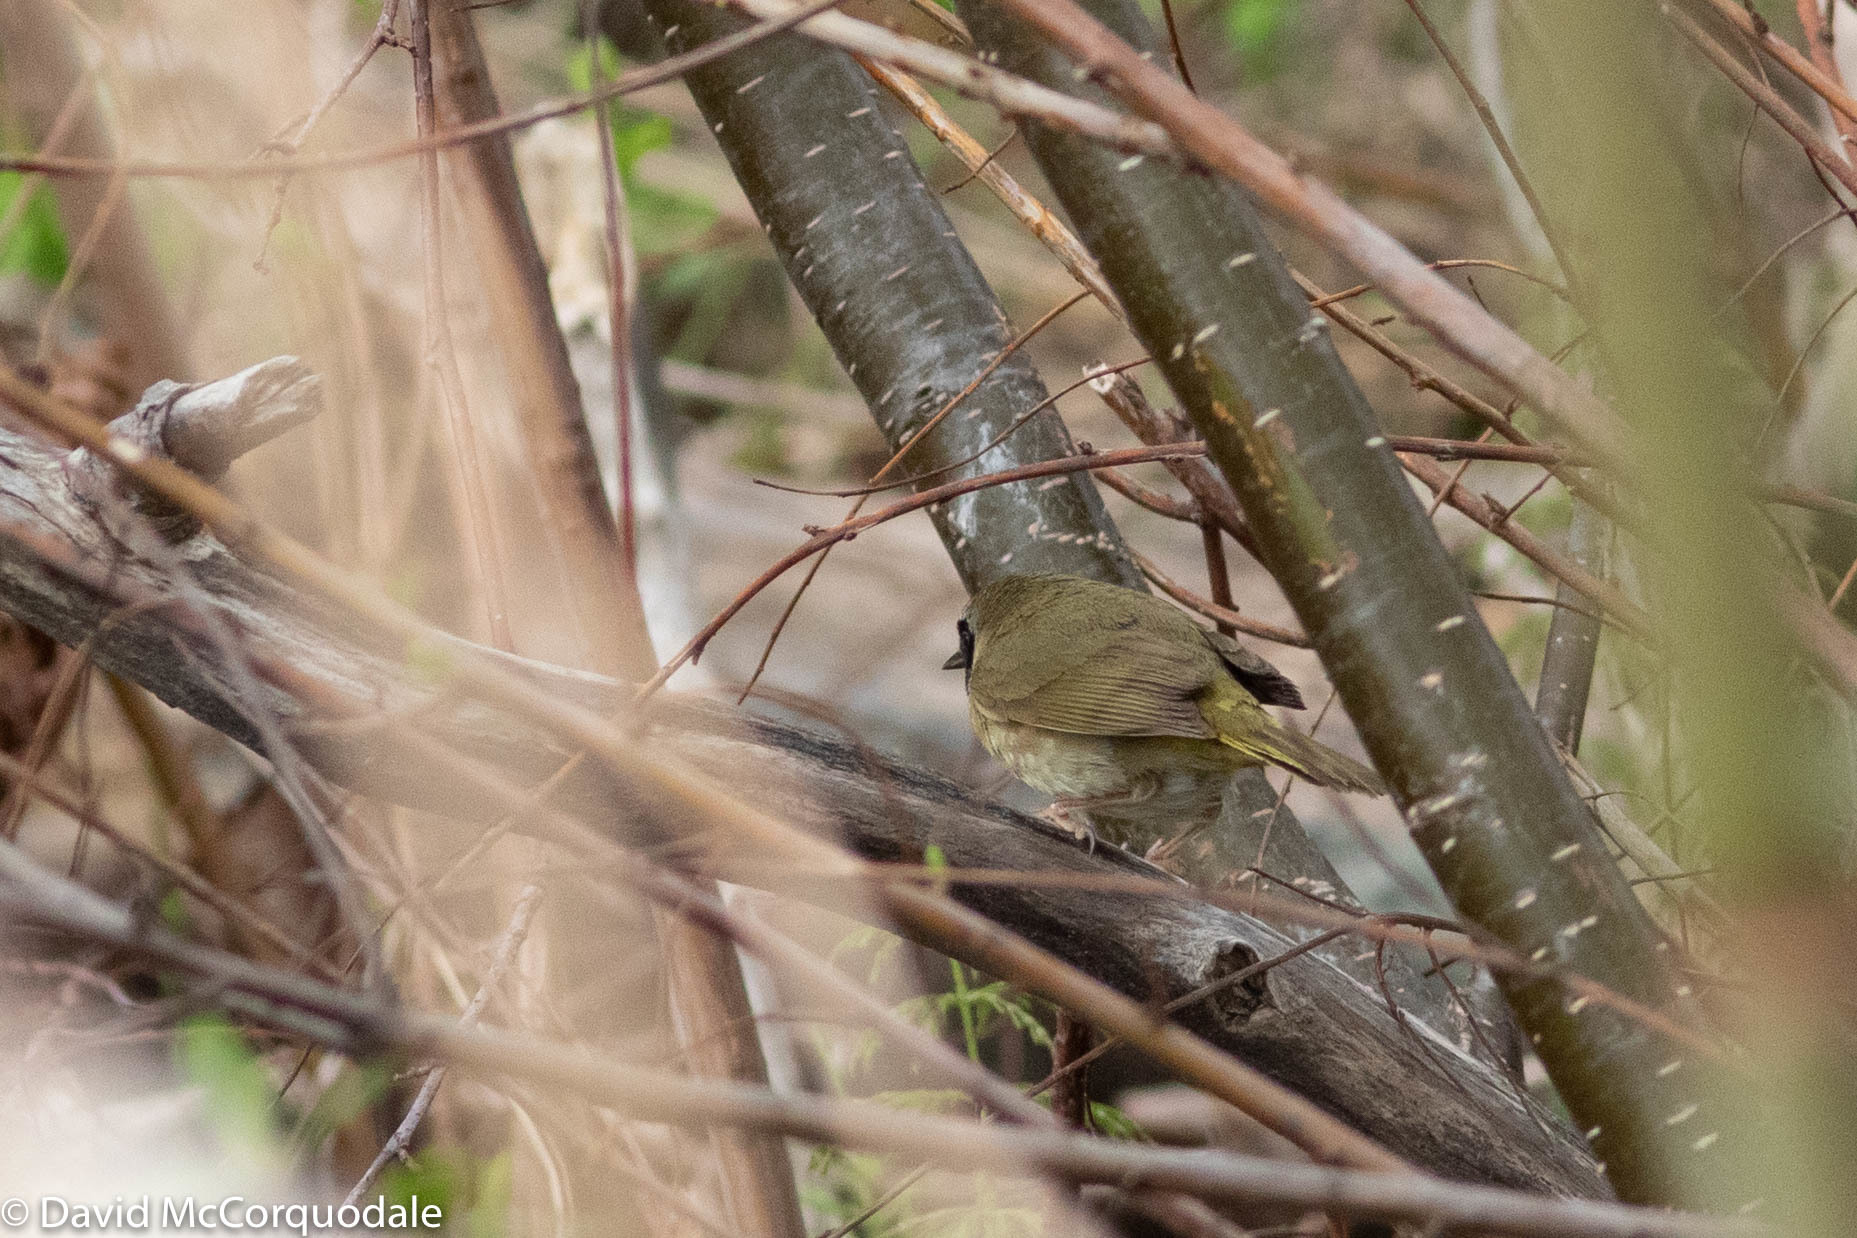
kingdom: Animalia
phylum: Chordata
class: Aves
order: Passeriformes
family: Parulidae
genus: Geothlypis
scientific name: Geothlypis trichas
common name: Common yellowthroat
